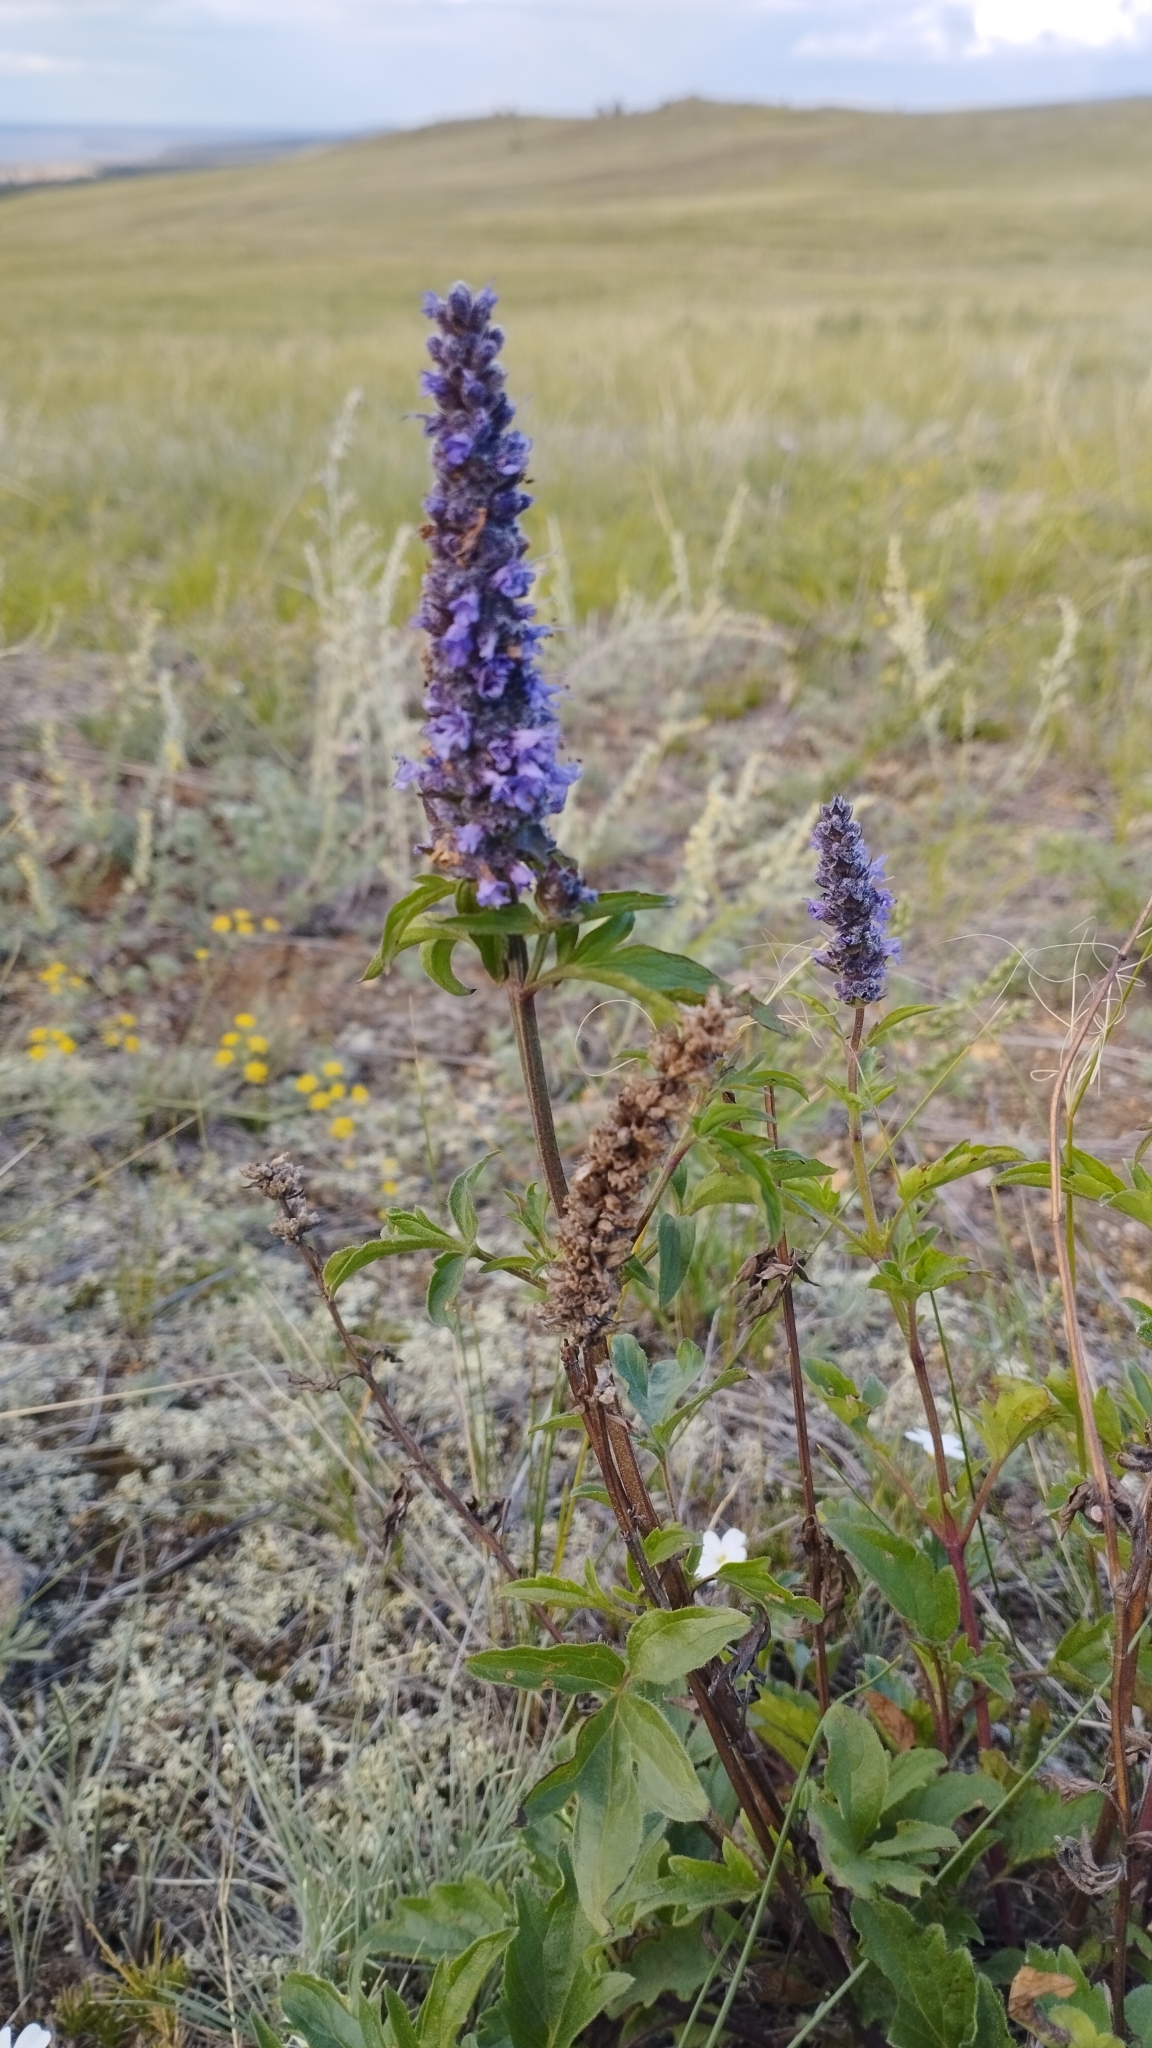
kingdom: Plantae
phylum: Tracheophyta
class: Magnoliopsida
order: Lamiales
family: Lamiaceae
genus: Nepeta
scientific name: Nepeta multifida
